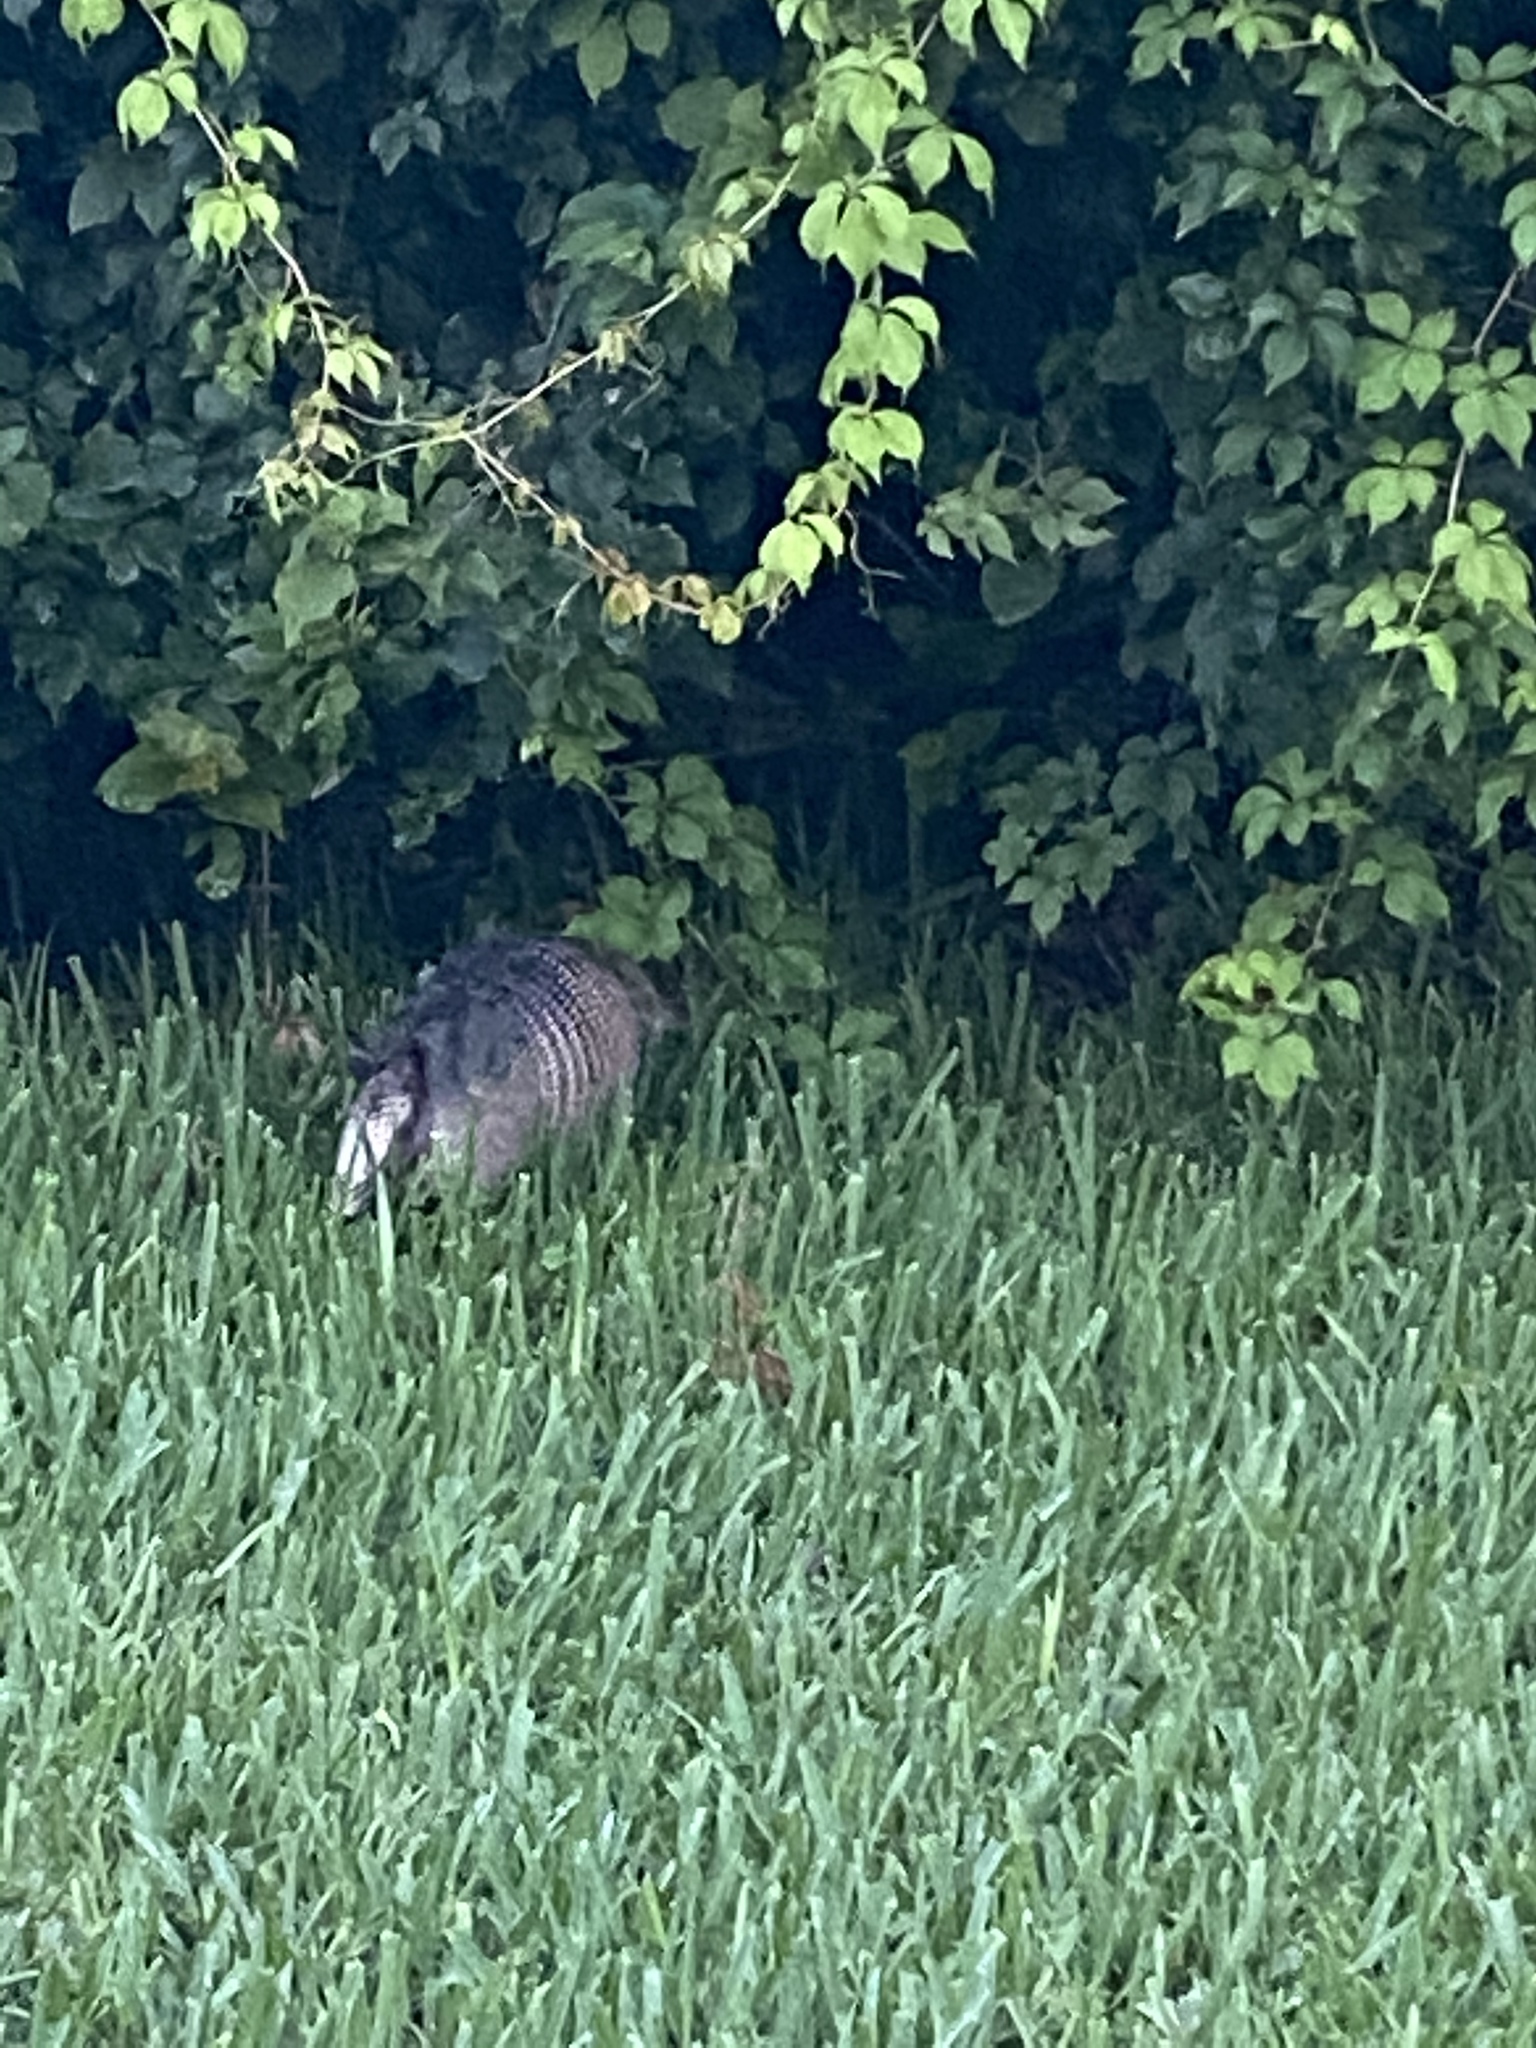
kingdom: Animalia
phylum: Chordata
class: Mammalia
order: Cingulata
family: Dasypodidae
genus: Dasypus
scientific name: Dasypus novemcinctus
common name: Nine-banded armadillo
